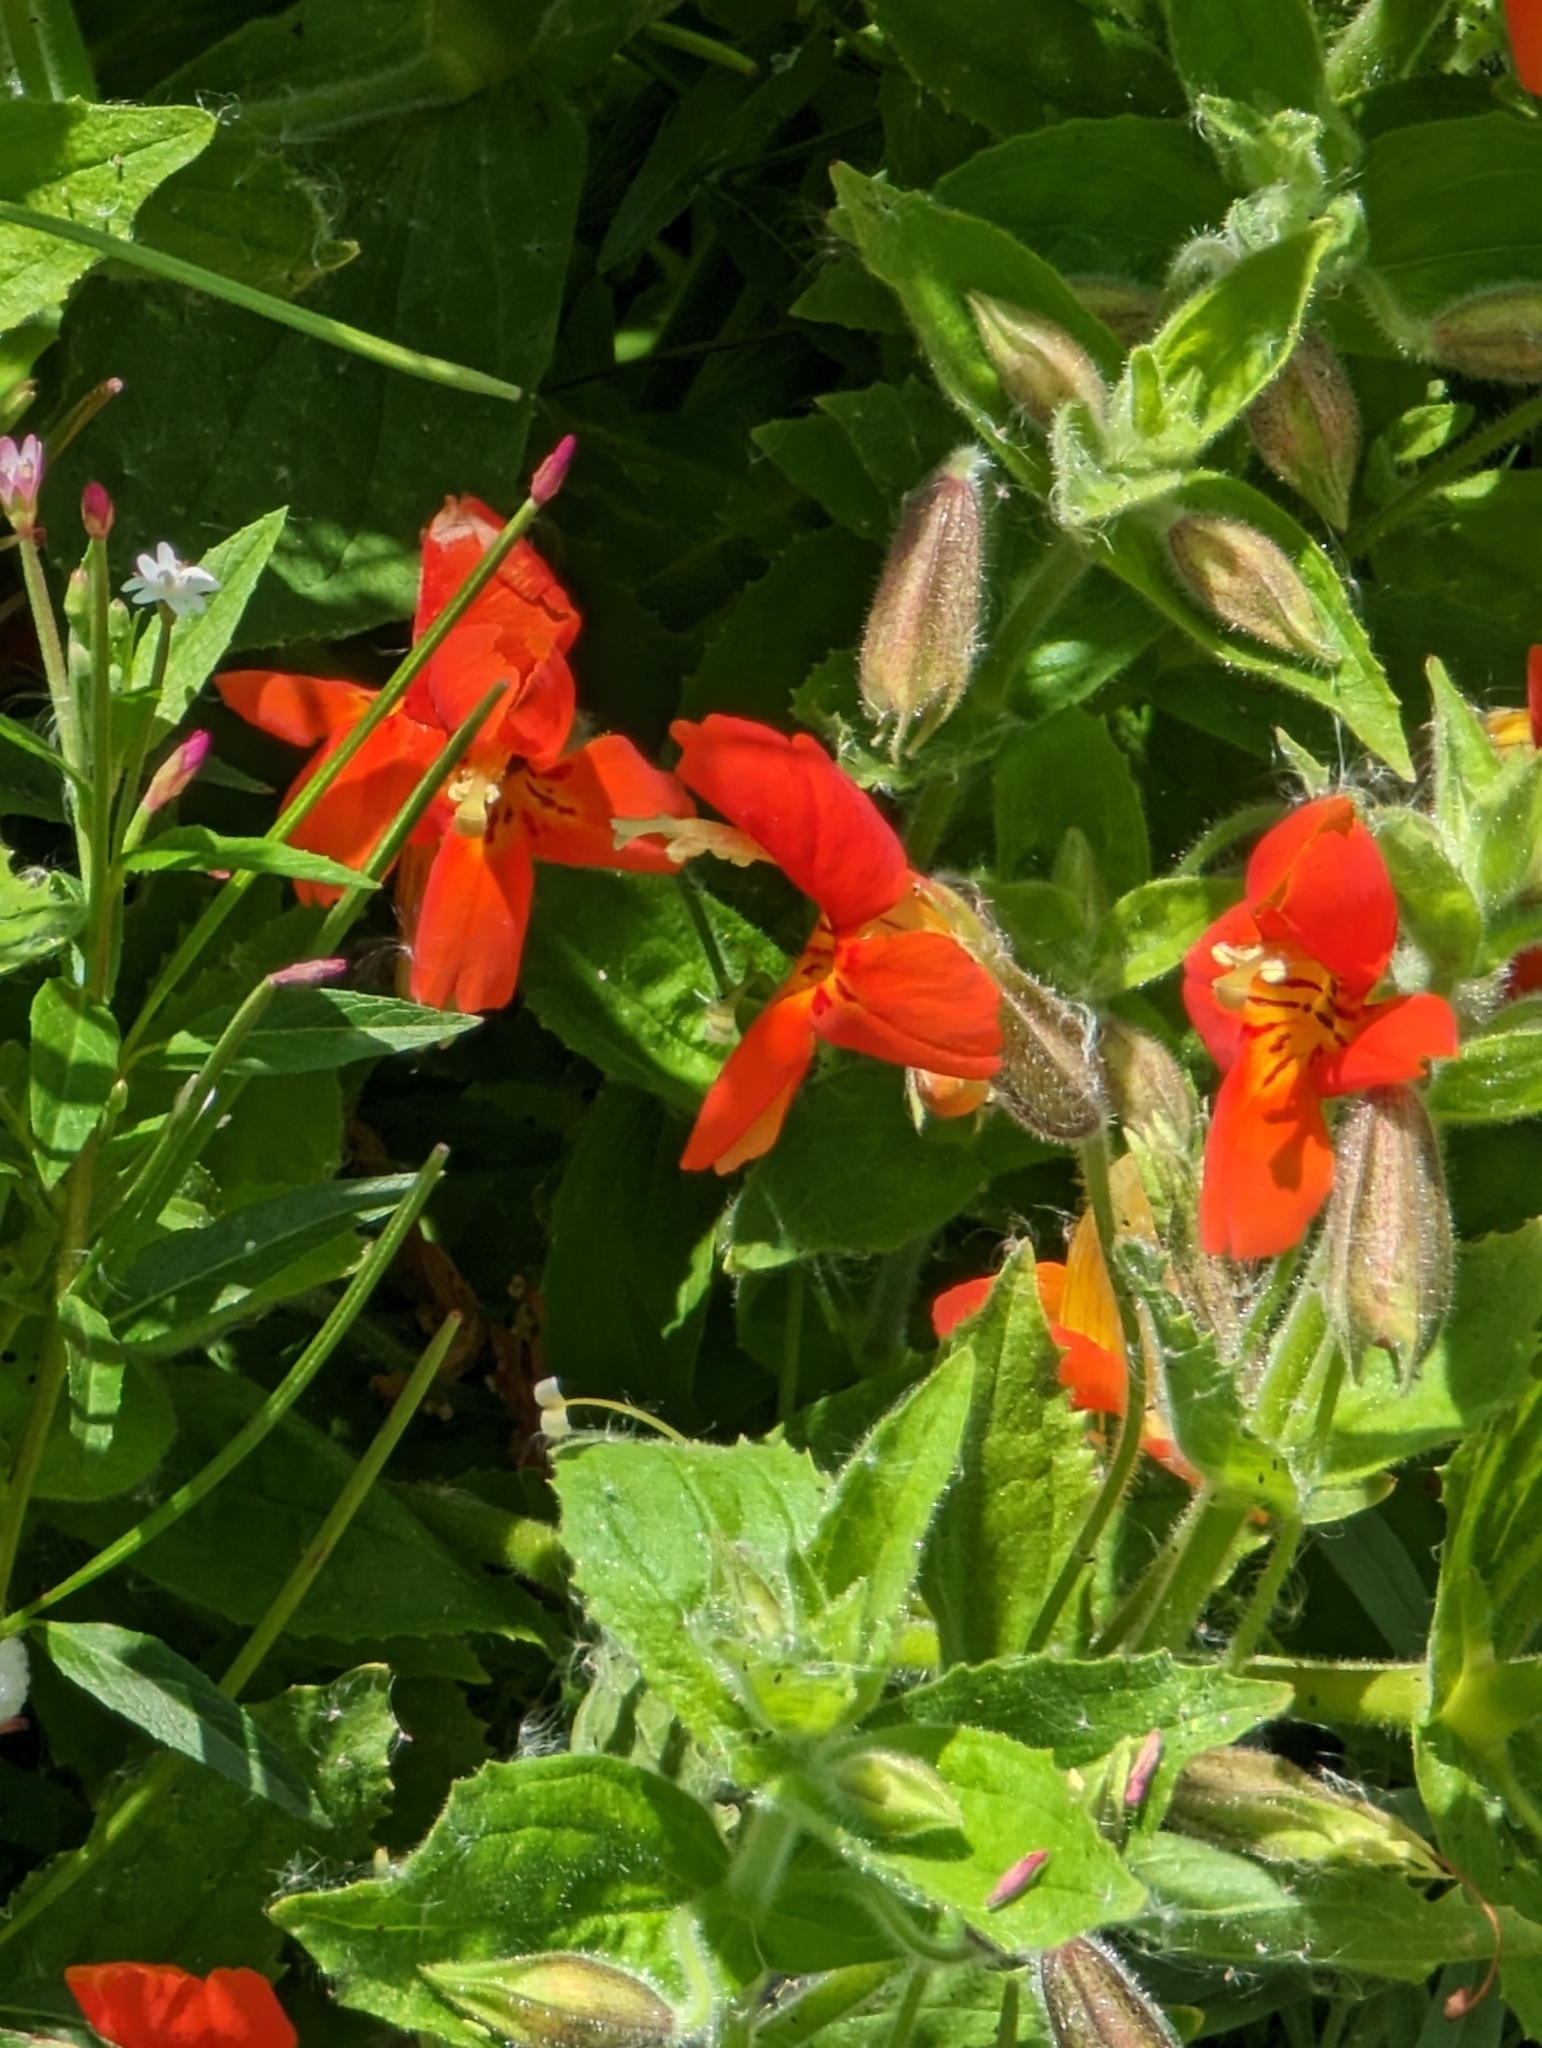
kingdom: Plantae
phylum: Tracheophyta
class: Magnoliopsida
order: Lamiales
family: Phrymaceae
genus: Erythranthe
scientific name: Erythranthe cardinalis
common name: Scarlet monkey-flower
